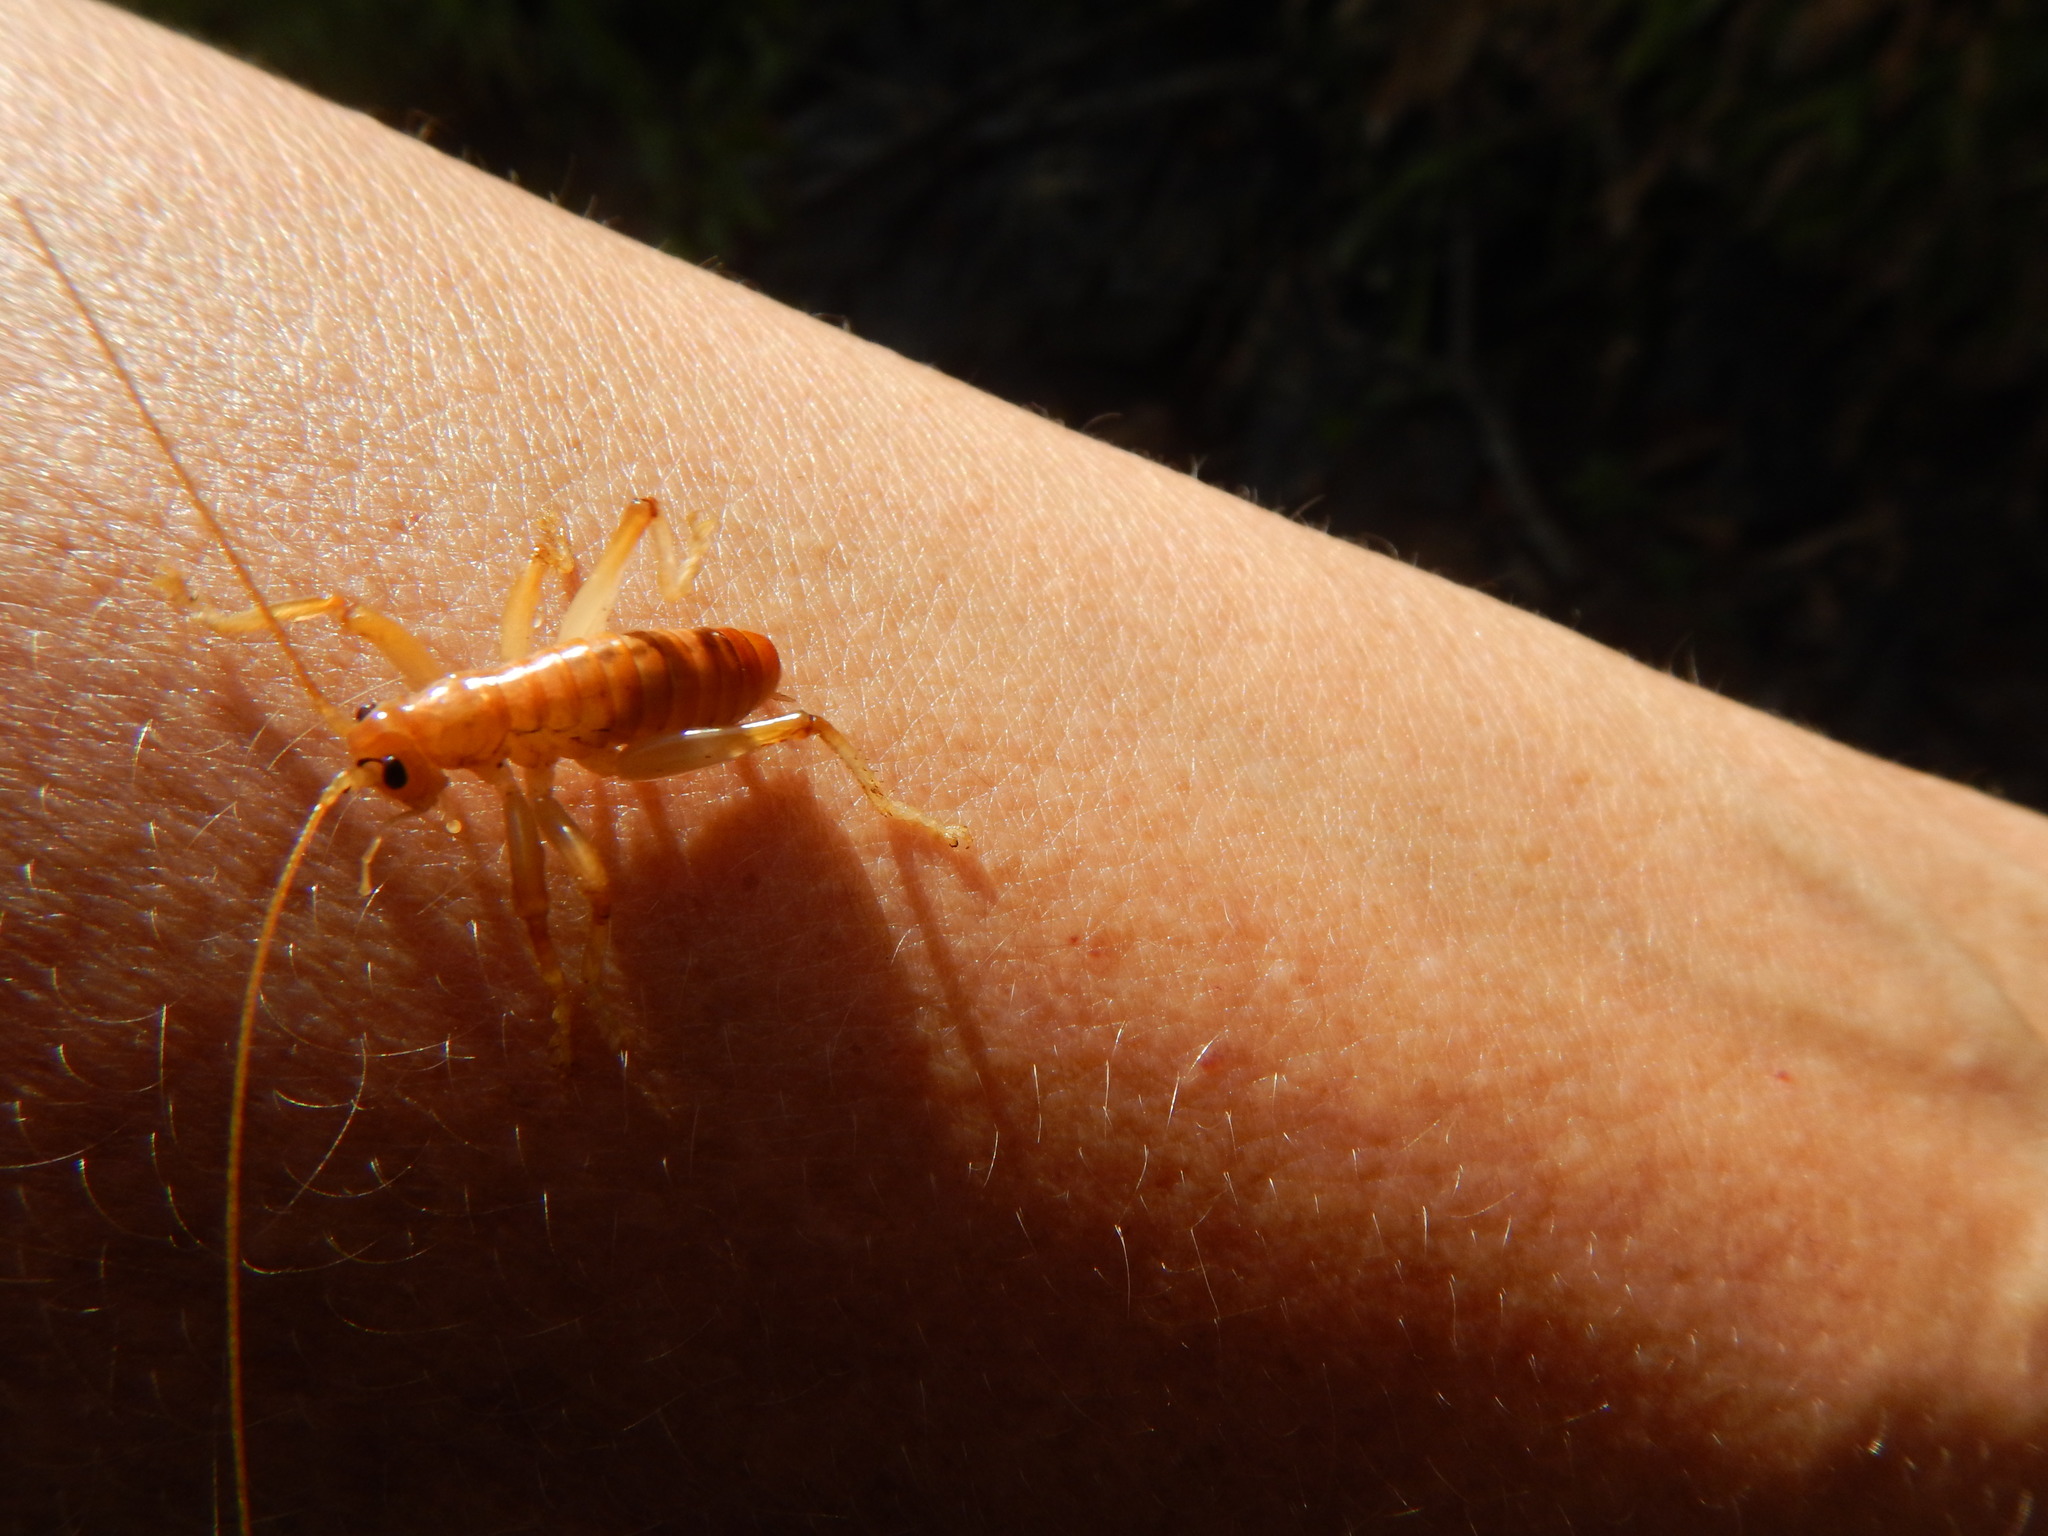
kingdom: Animalia
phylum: Arthropoda
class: Insecta
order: Orthoptera
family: Gryllacrididae
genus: Camptonotus
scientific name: Camptonotus carolinensis
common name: Carolina leaf-roller
